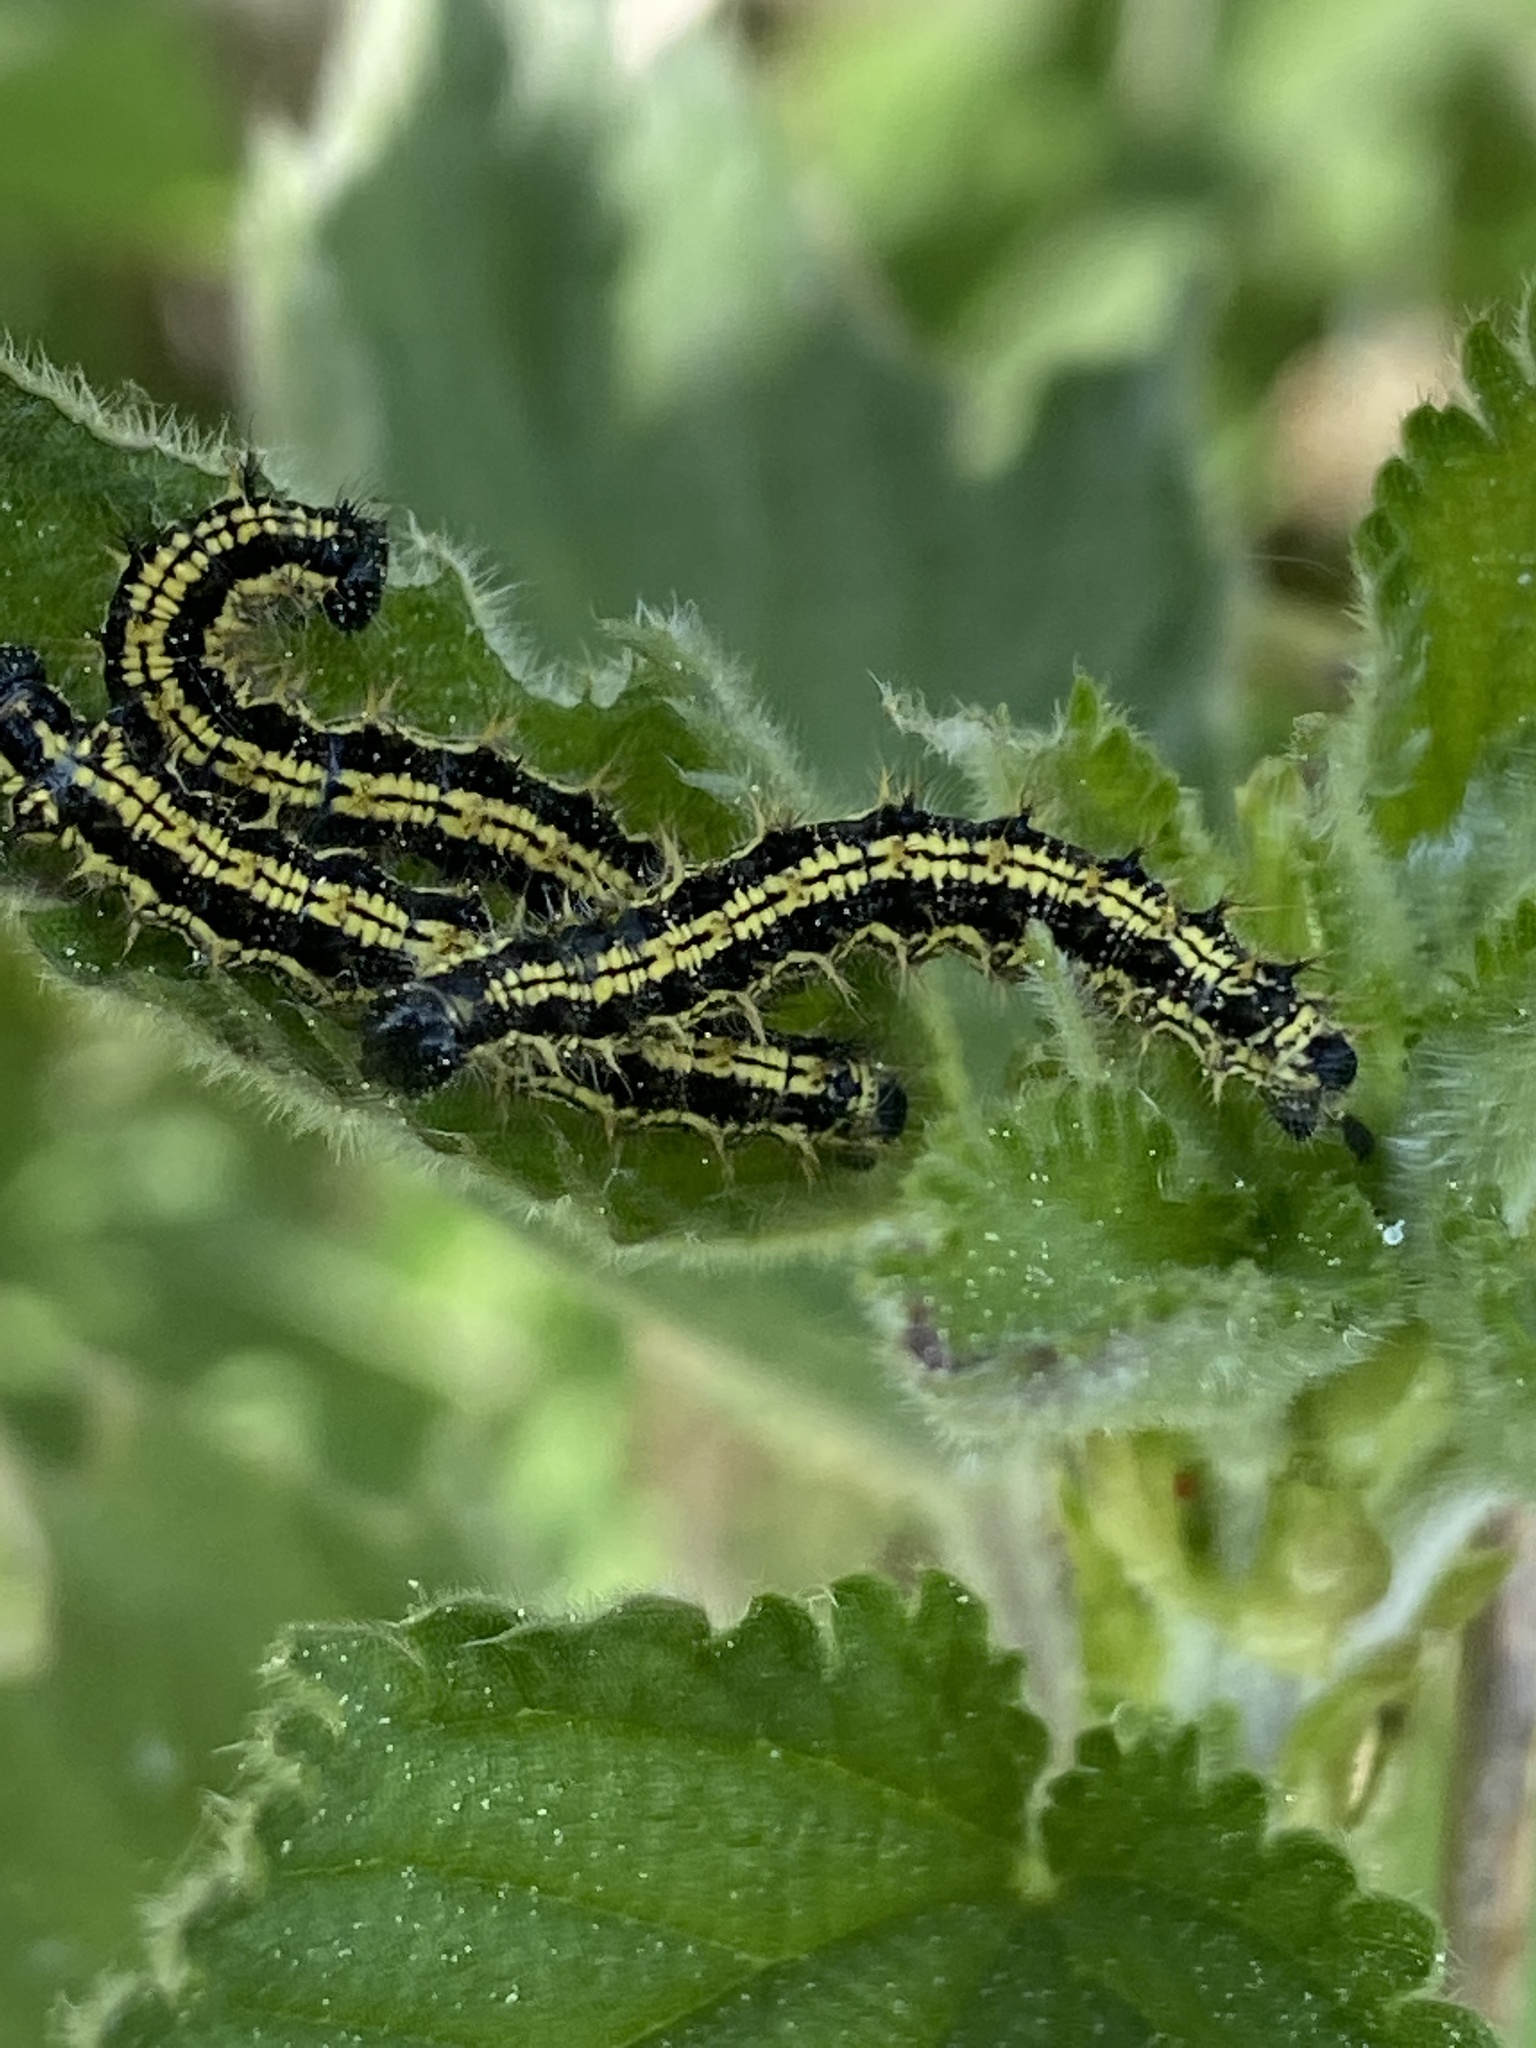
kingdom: Animalia
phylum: Arthropoda
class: Insecta
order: Lepidoptera
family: Nymphalidae
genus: Aglais
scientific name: Aglais urticae
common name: Small tortoiseshell
